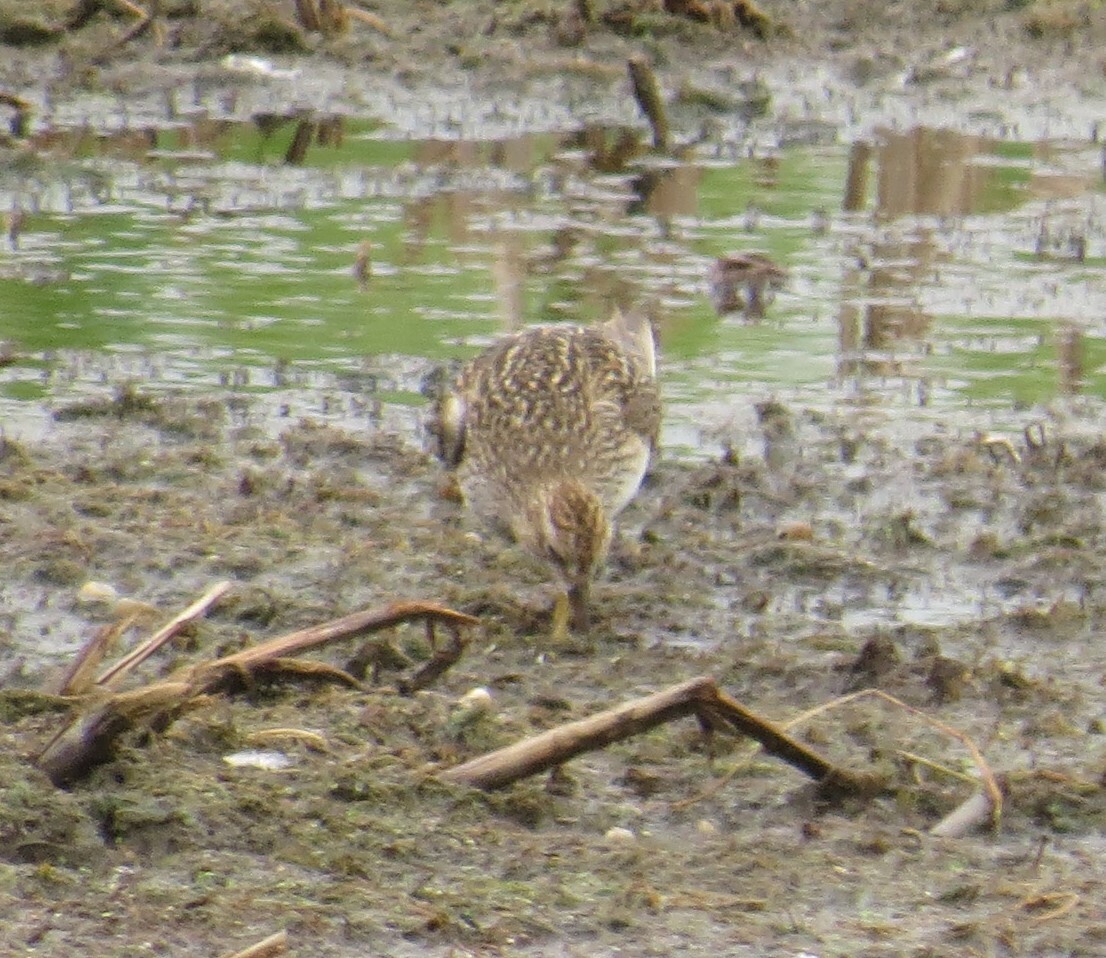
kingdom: Animalia
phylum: Chordata
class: Aves
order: Charadriiformes
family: Scolopacidae
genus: Calidris
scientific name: Calidris melanotos
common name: Pectoral sandpiper
